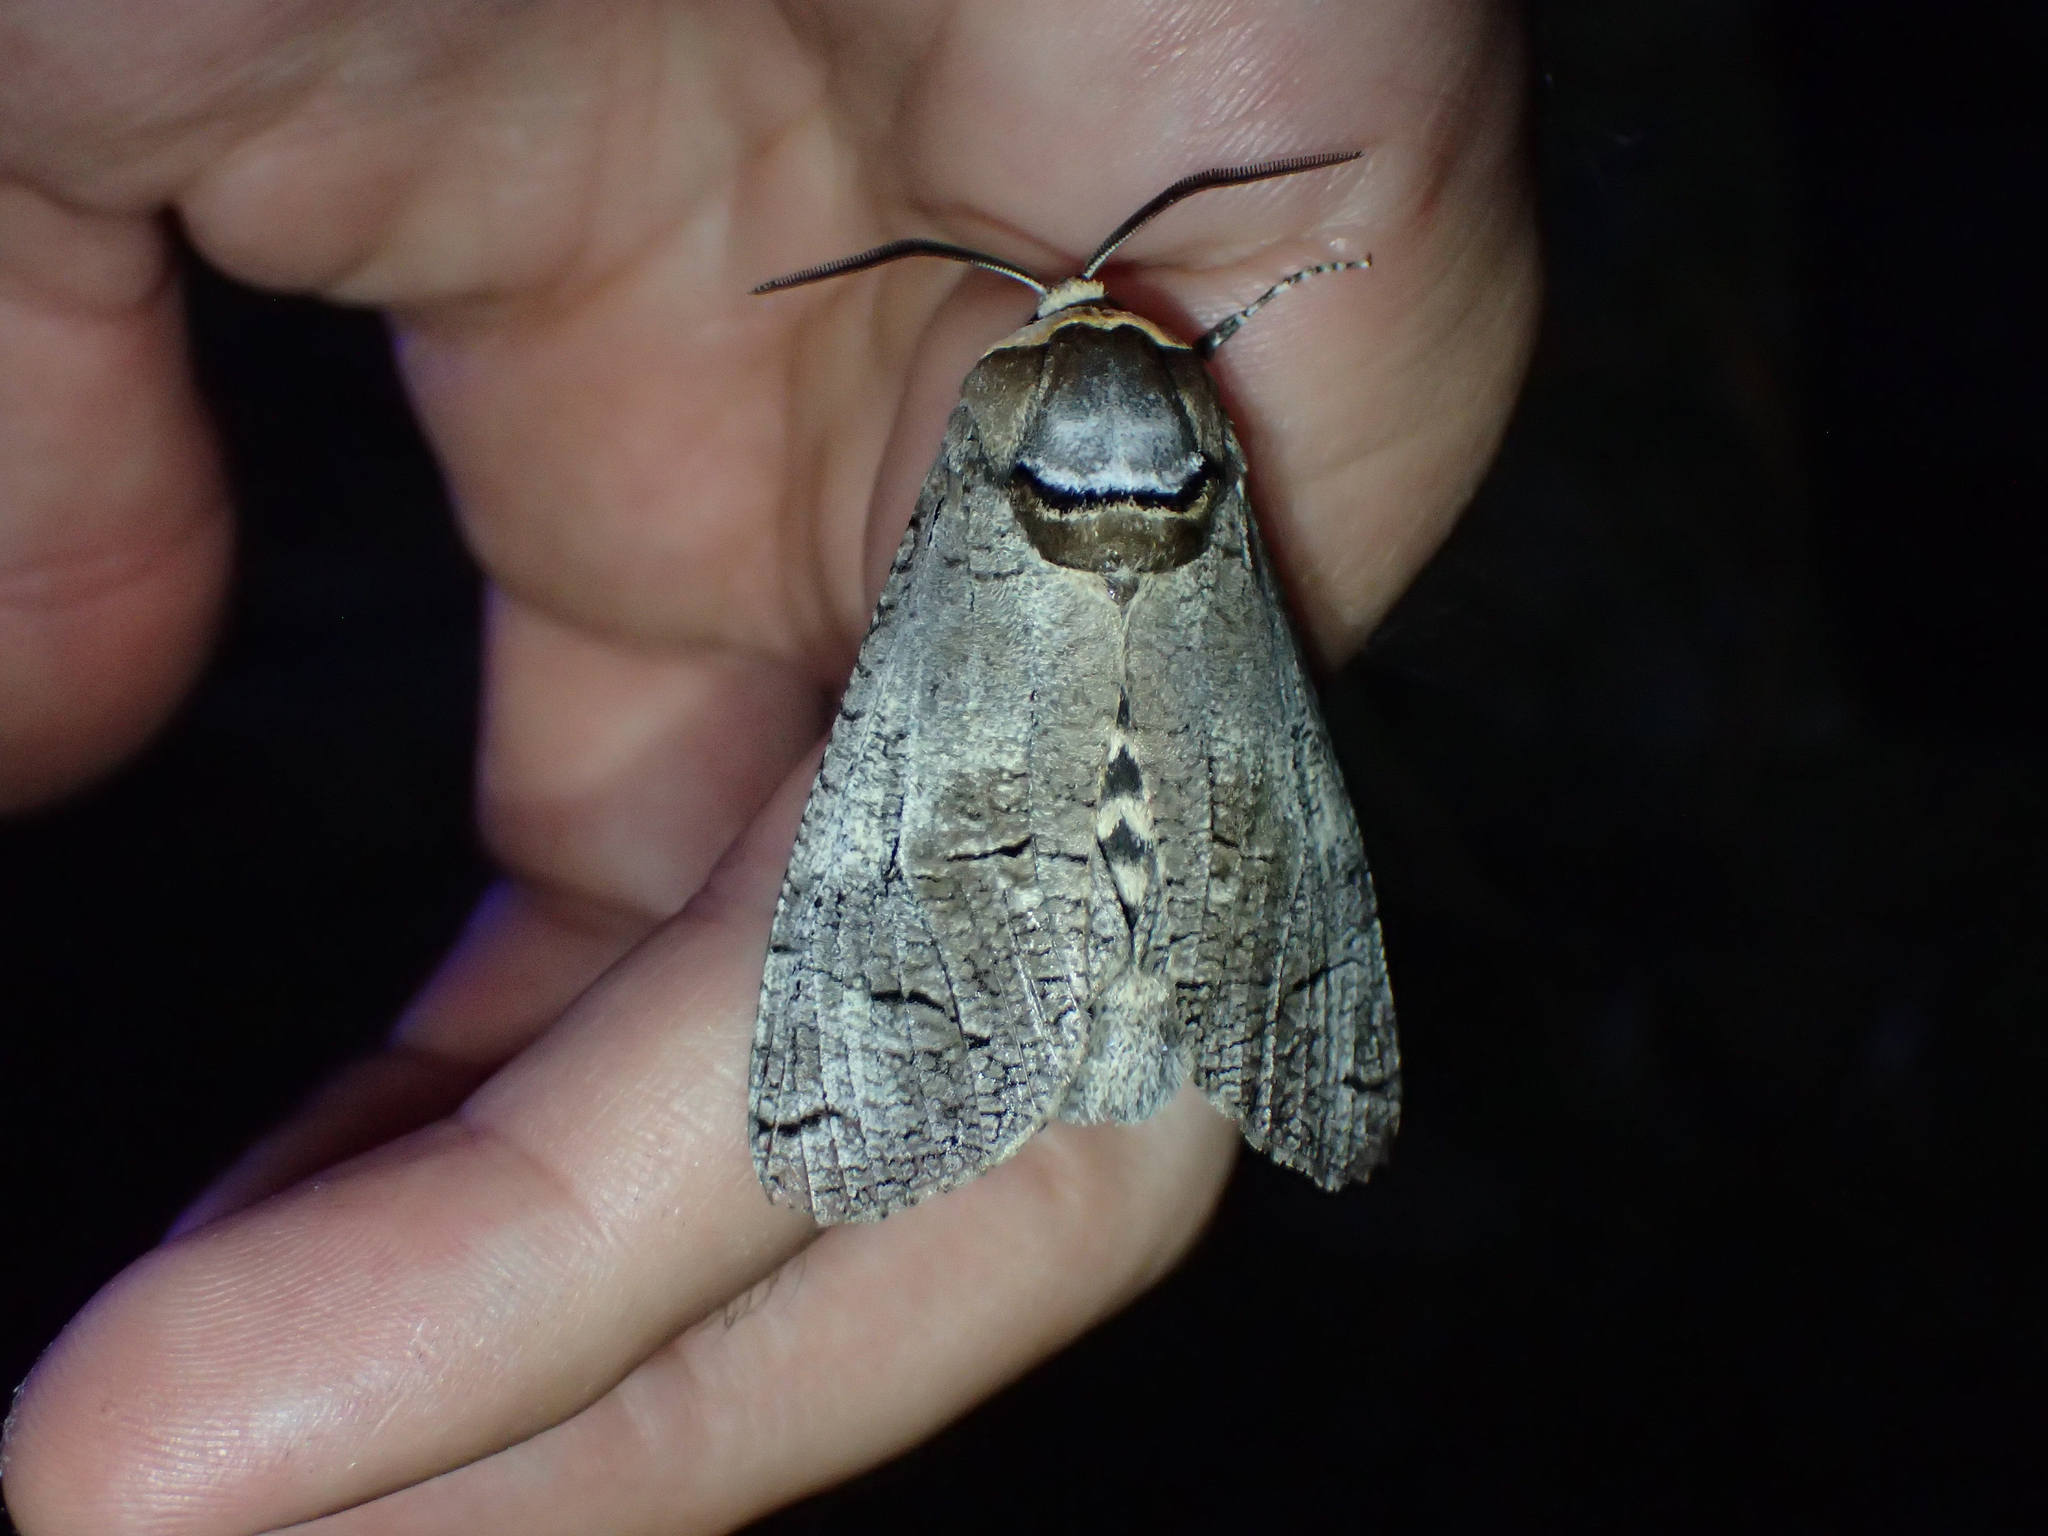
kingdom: Animalia
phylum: Arthropoda
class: Insecta
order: Lepidoptera
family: Cossidae
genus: Cossus
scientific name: Cossus cossus
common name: Goat moth
